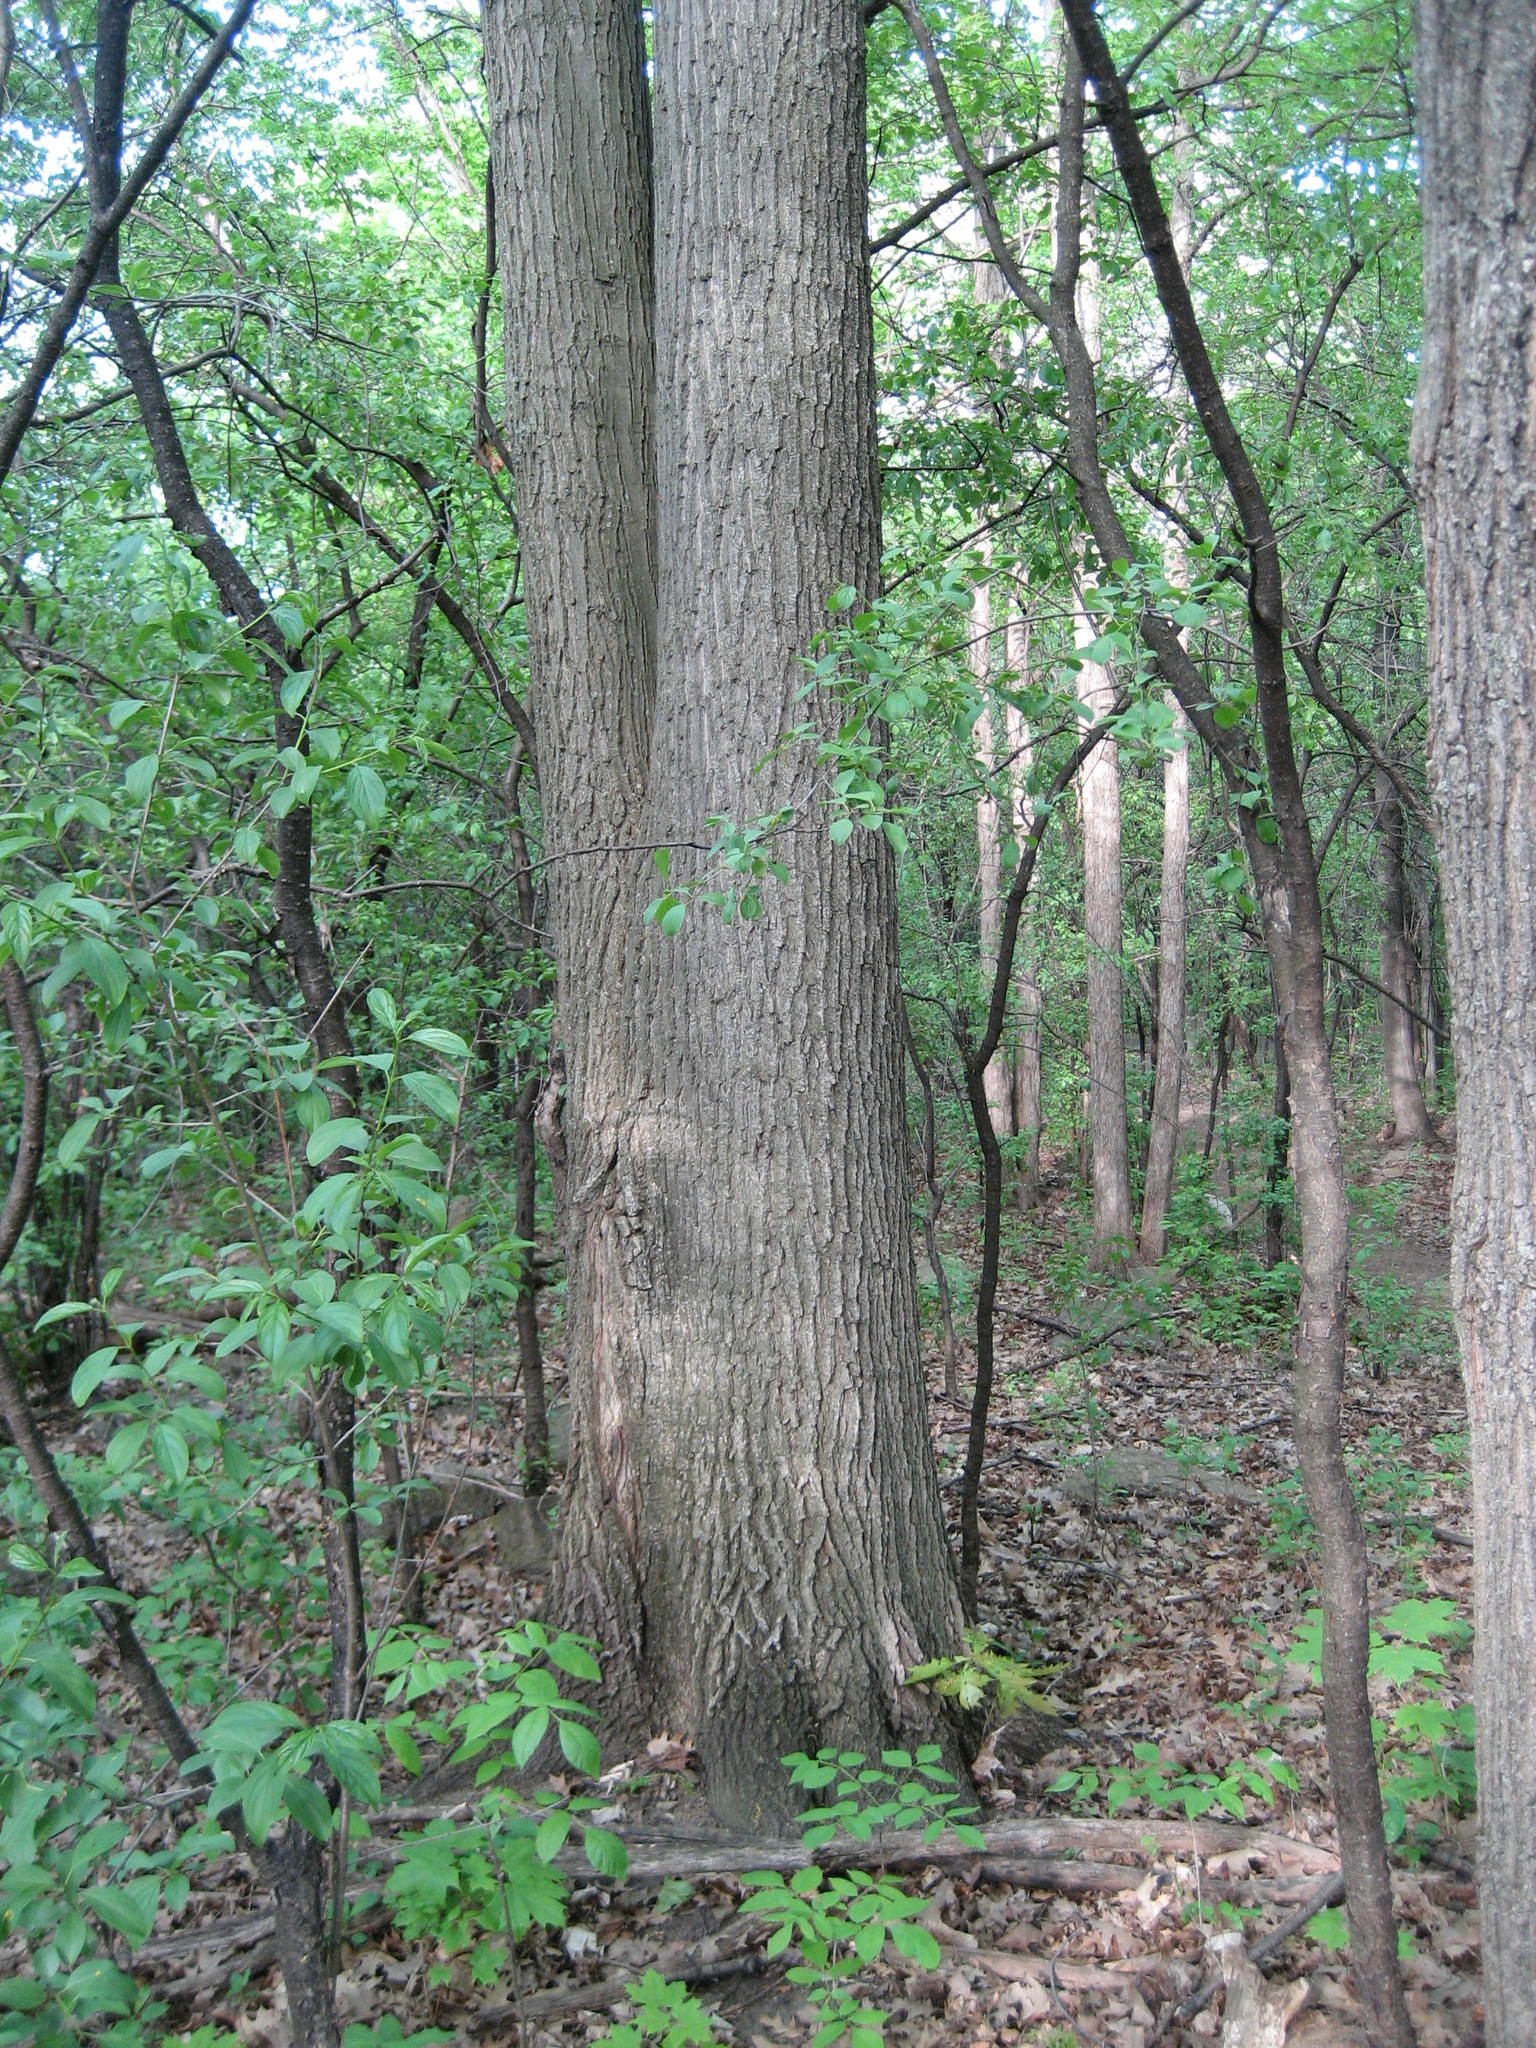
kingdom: Plantae
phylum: Tracheophyta
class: Magnoliopsida
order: Fagales
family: Fagaceae
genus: Quercus
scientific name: Quercus rubra
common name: Red oak
